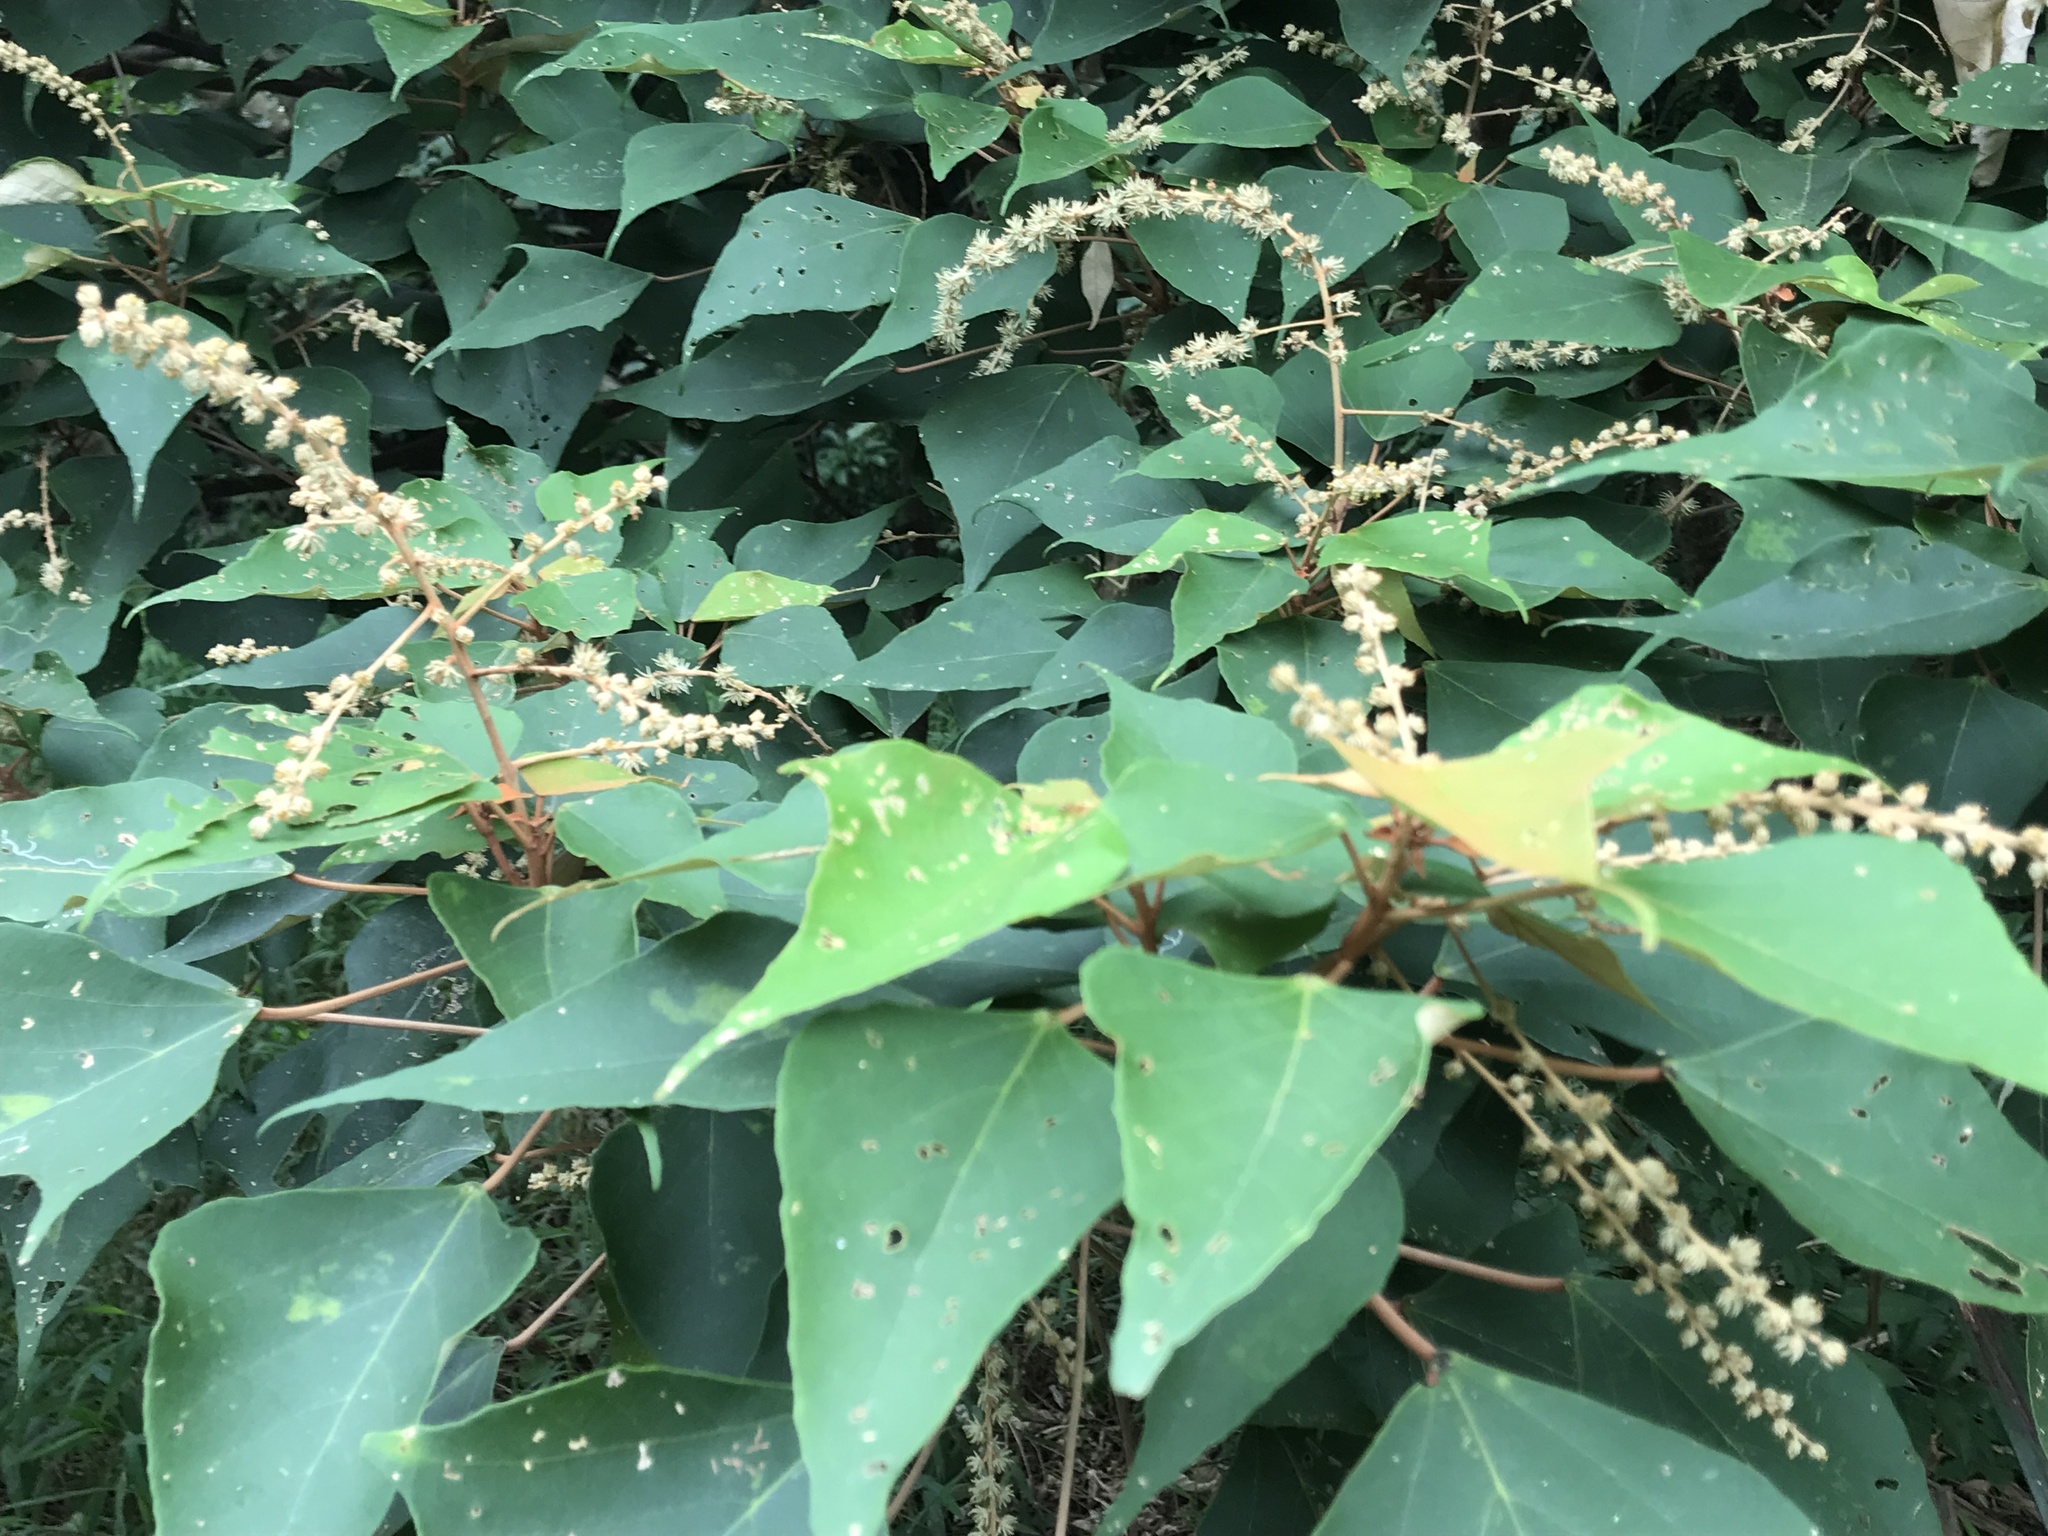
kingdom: Plantae
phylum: Tracheophyta
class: Magnoliopsida
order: Malpighiales
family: Euphorbiaceae
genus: Mallotus
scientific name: Mallotus paniculatus
